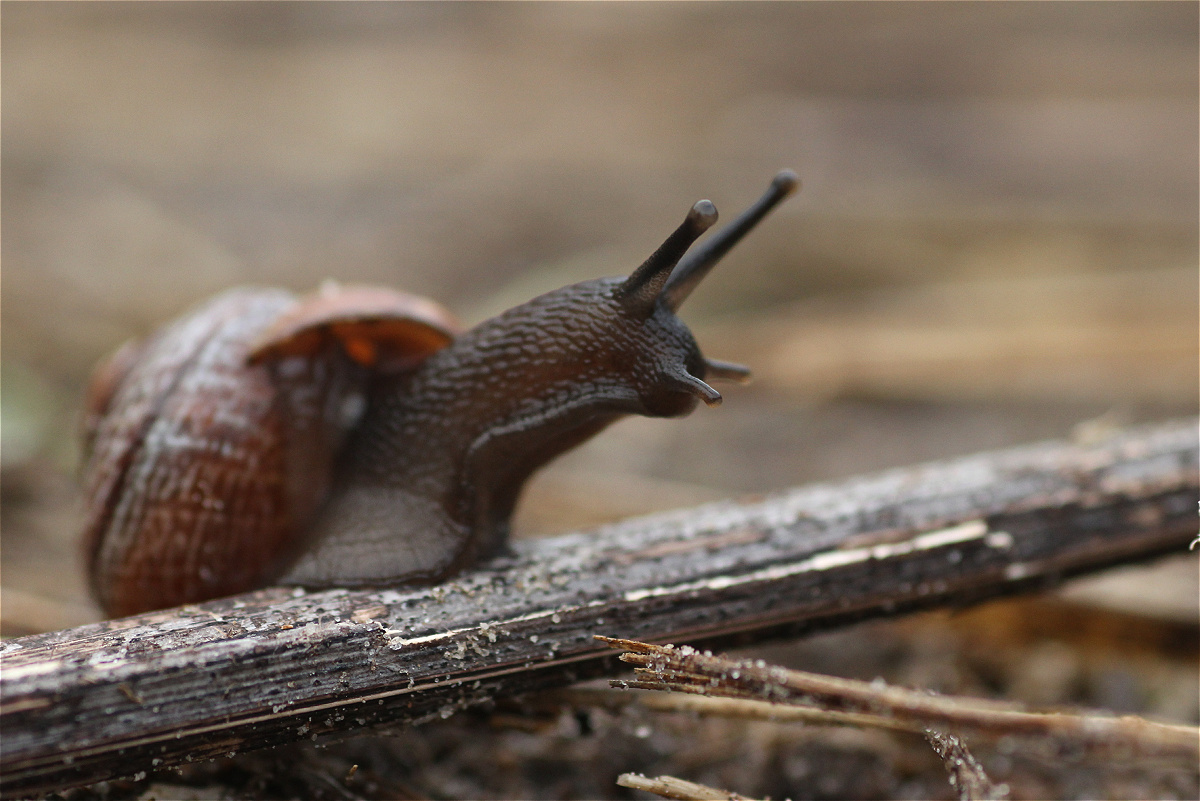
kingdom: Animalia
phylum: Mollusca
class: Gastropoda
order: Stylommatophora
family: Helicidae
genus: Arianta
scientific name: Arianta arbustorum
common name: Copse snail
